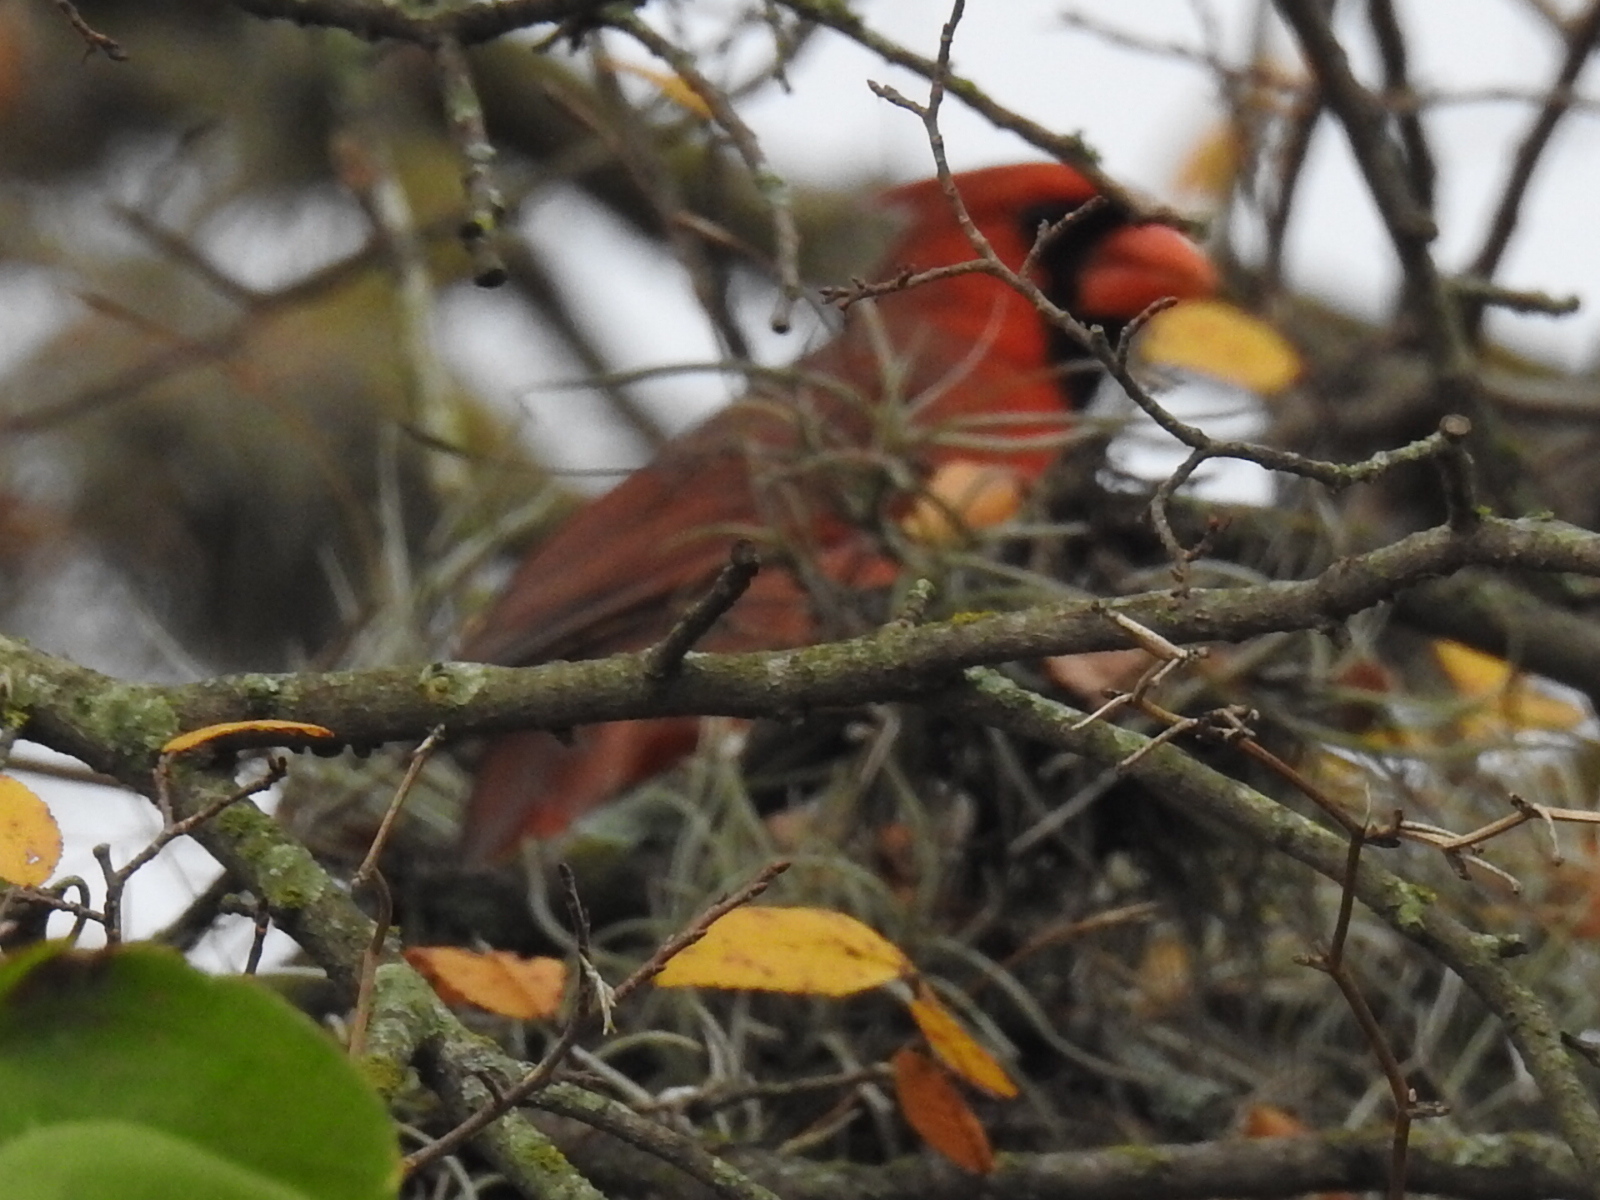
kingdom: Animalia
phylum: Chordata
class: Aves
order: Passeriformes
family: Cardinalidae
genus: Cardinalis
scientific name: Cardinalis cardinalis
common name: Northern cardinal
